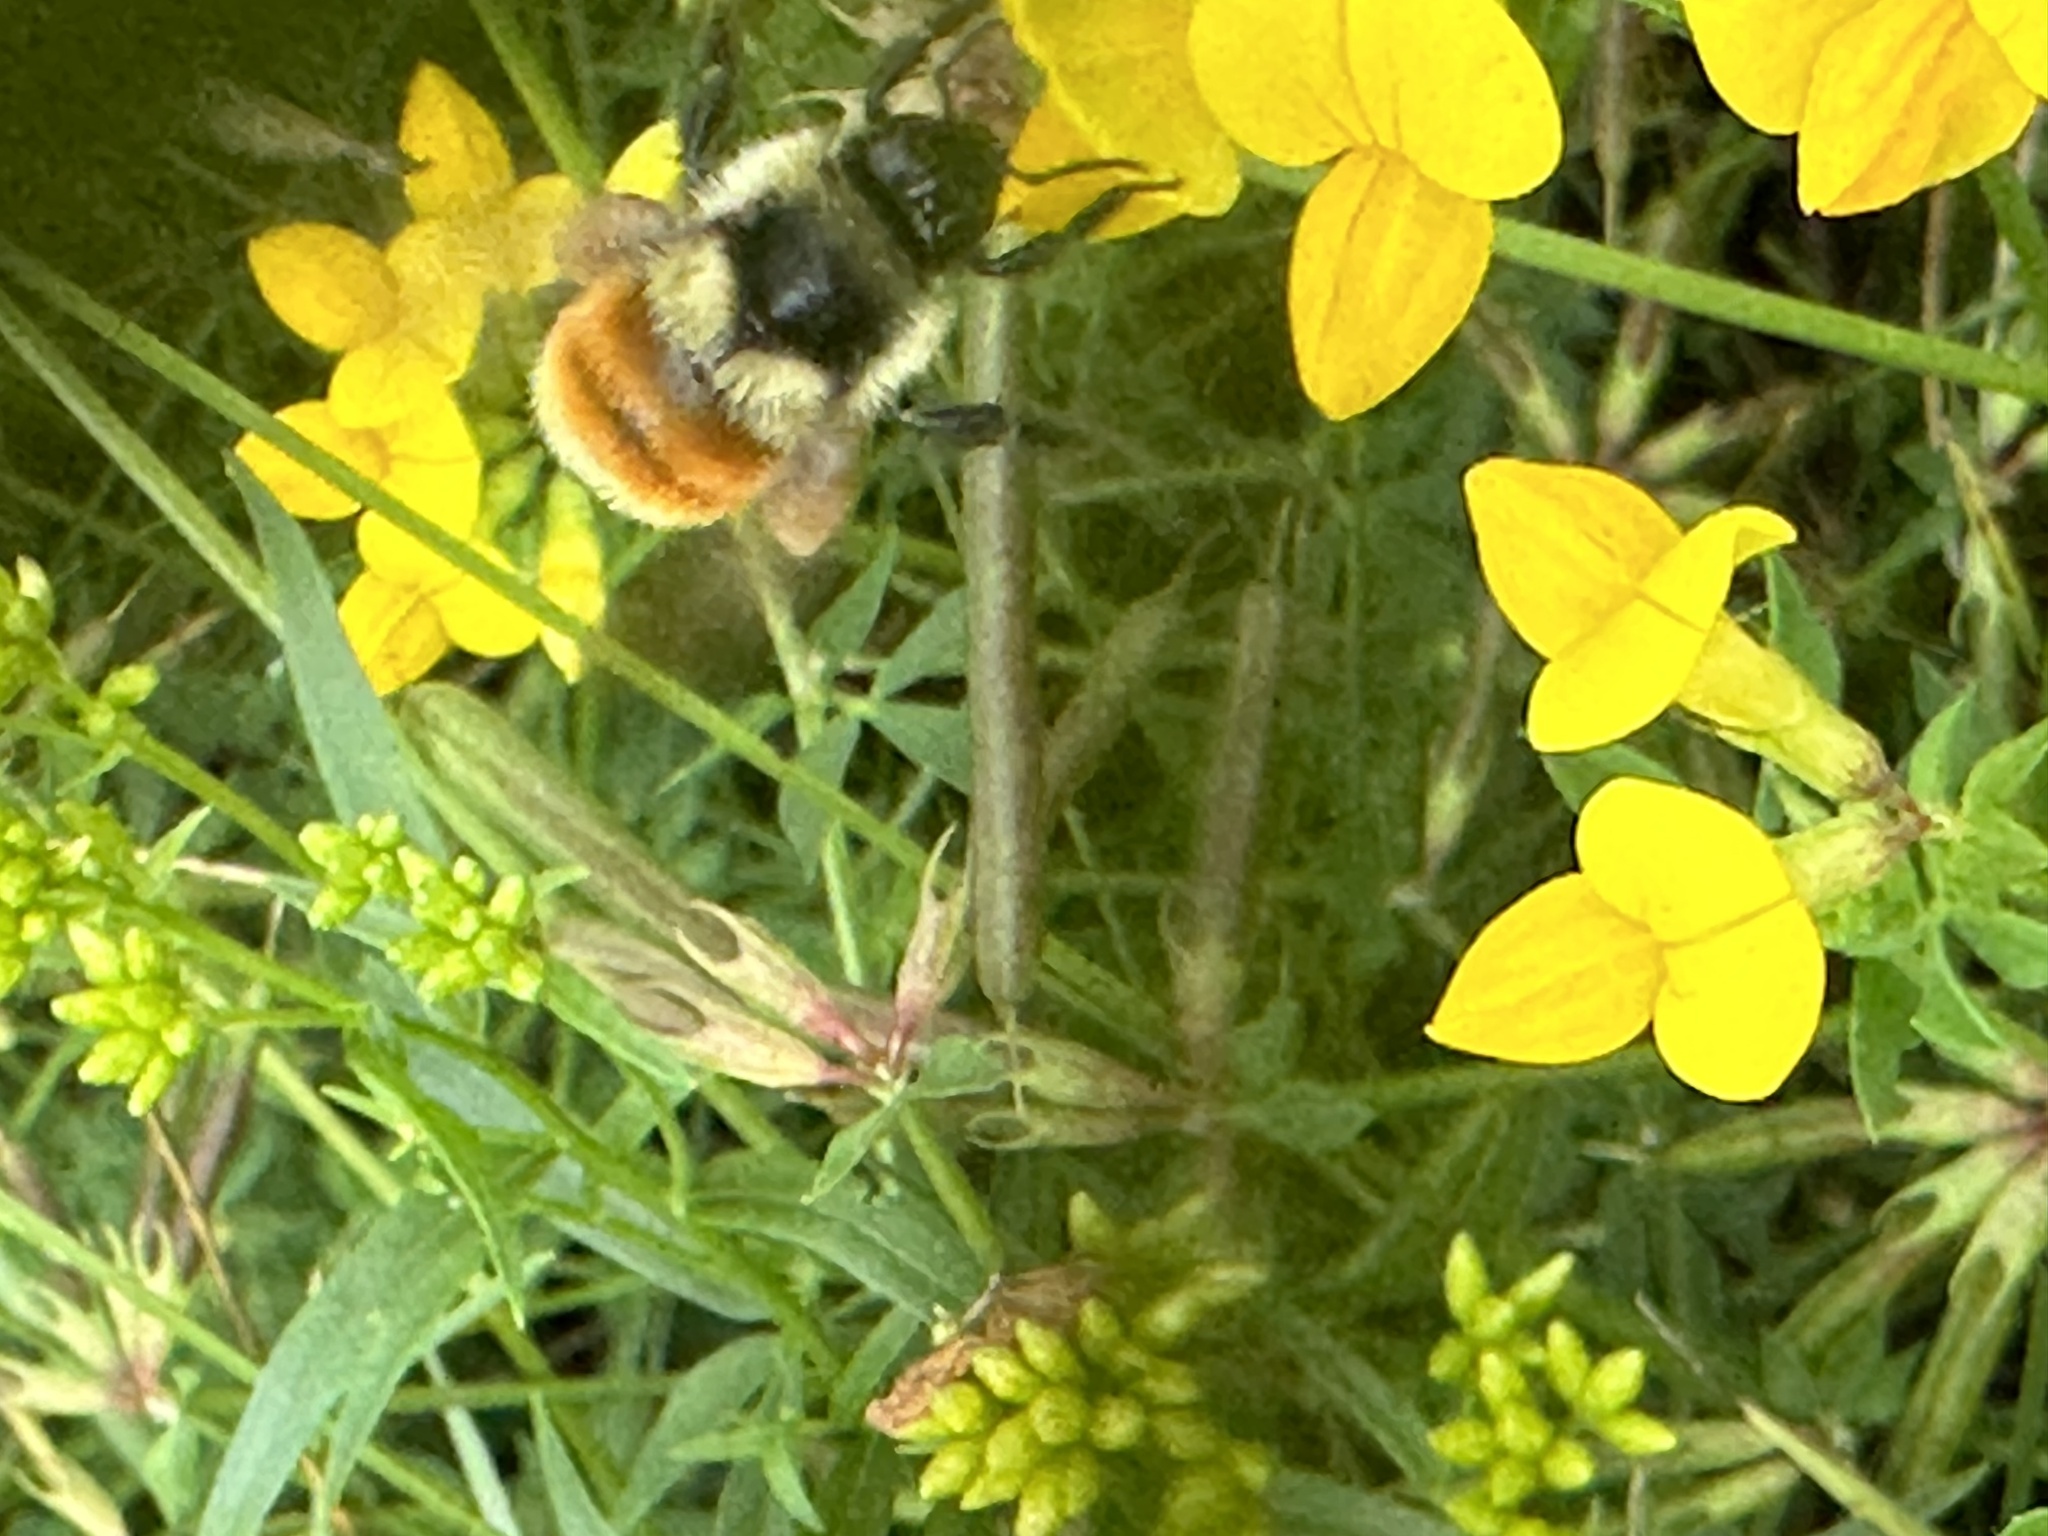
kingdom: Animalia
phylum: Arthropoda
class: Insecta
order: Hymenoptera
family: Apidae
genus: Bombus
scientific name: Bombus ternarius
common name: Tri-colored bumble bee
